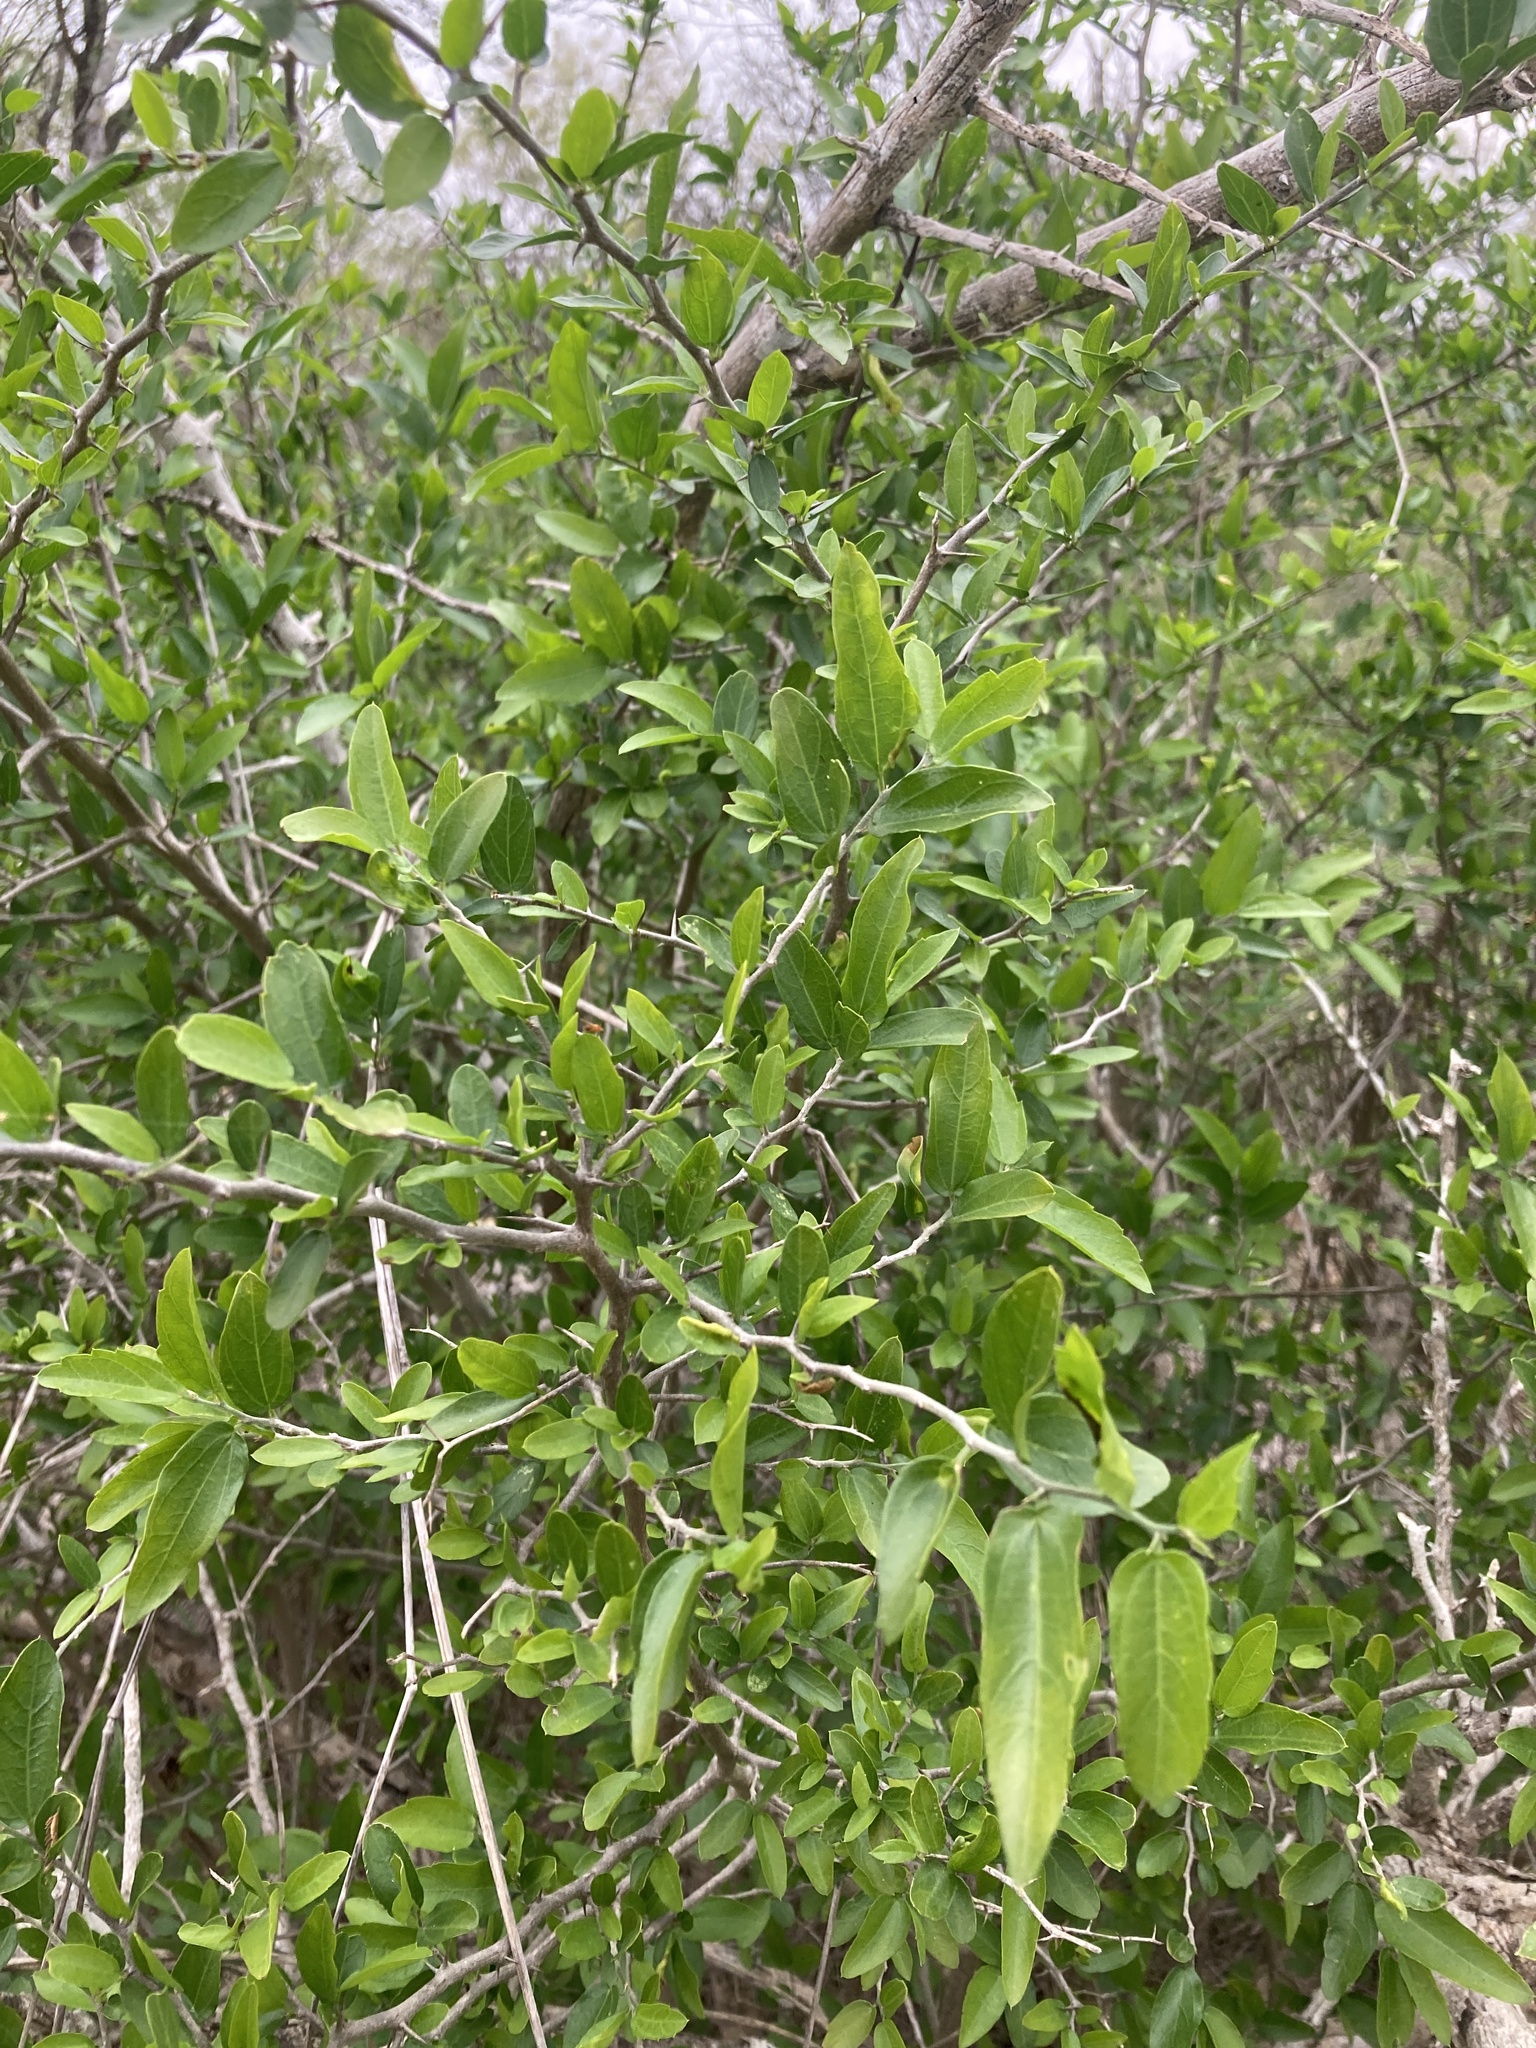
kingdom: Plantae
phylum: Tracheophyta
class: Magnoliopsida
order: Rosales
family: Cannabaceae
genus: Celtis
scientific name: Celtis pallida
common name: Desert hackberry
